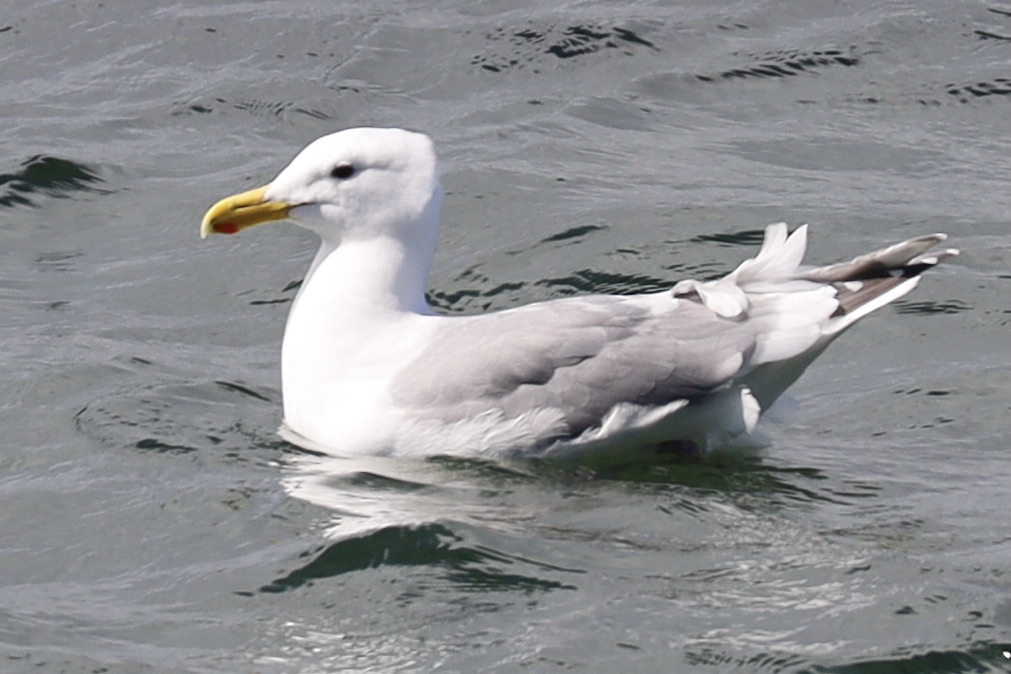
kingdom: Animalia
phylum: Chordata
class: Aves
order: Charadriiformes
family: Laridae
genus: Larus
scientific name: Larus
